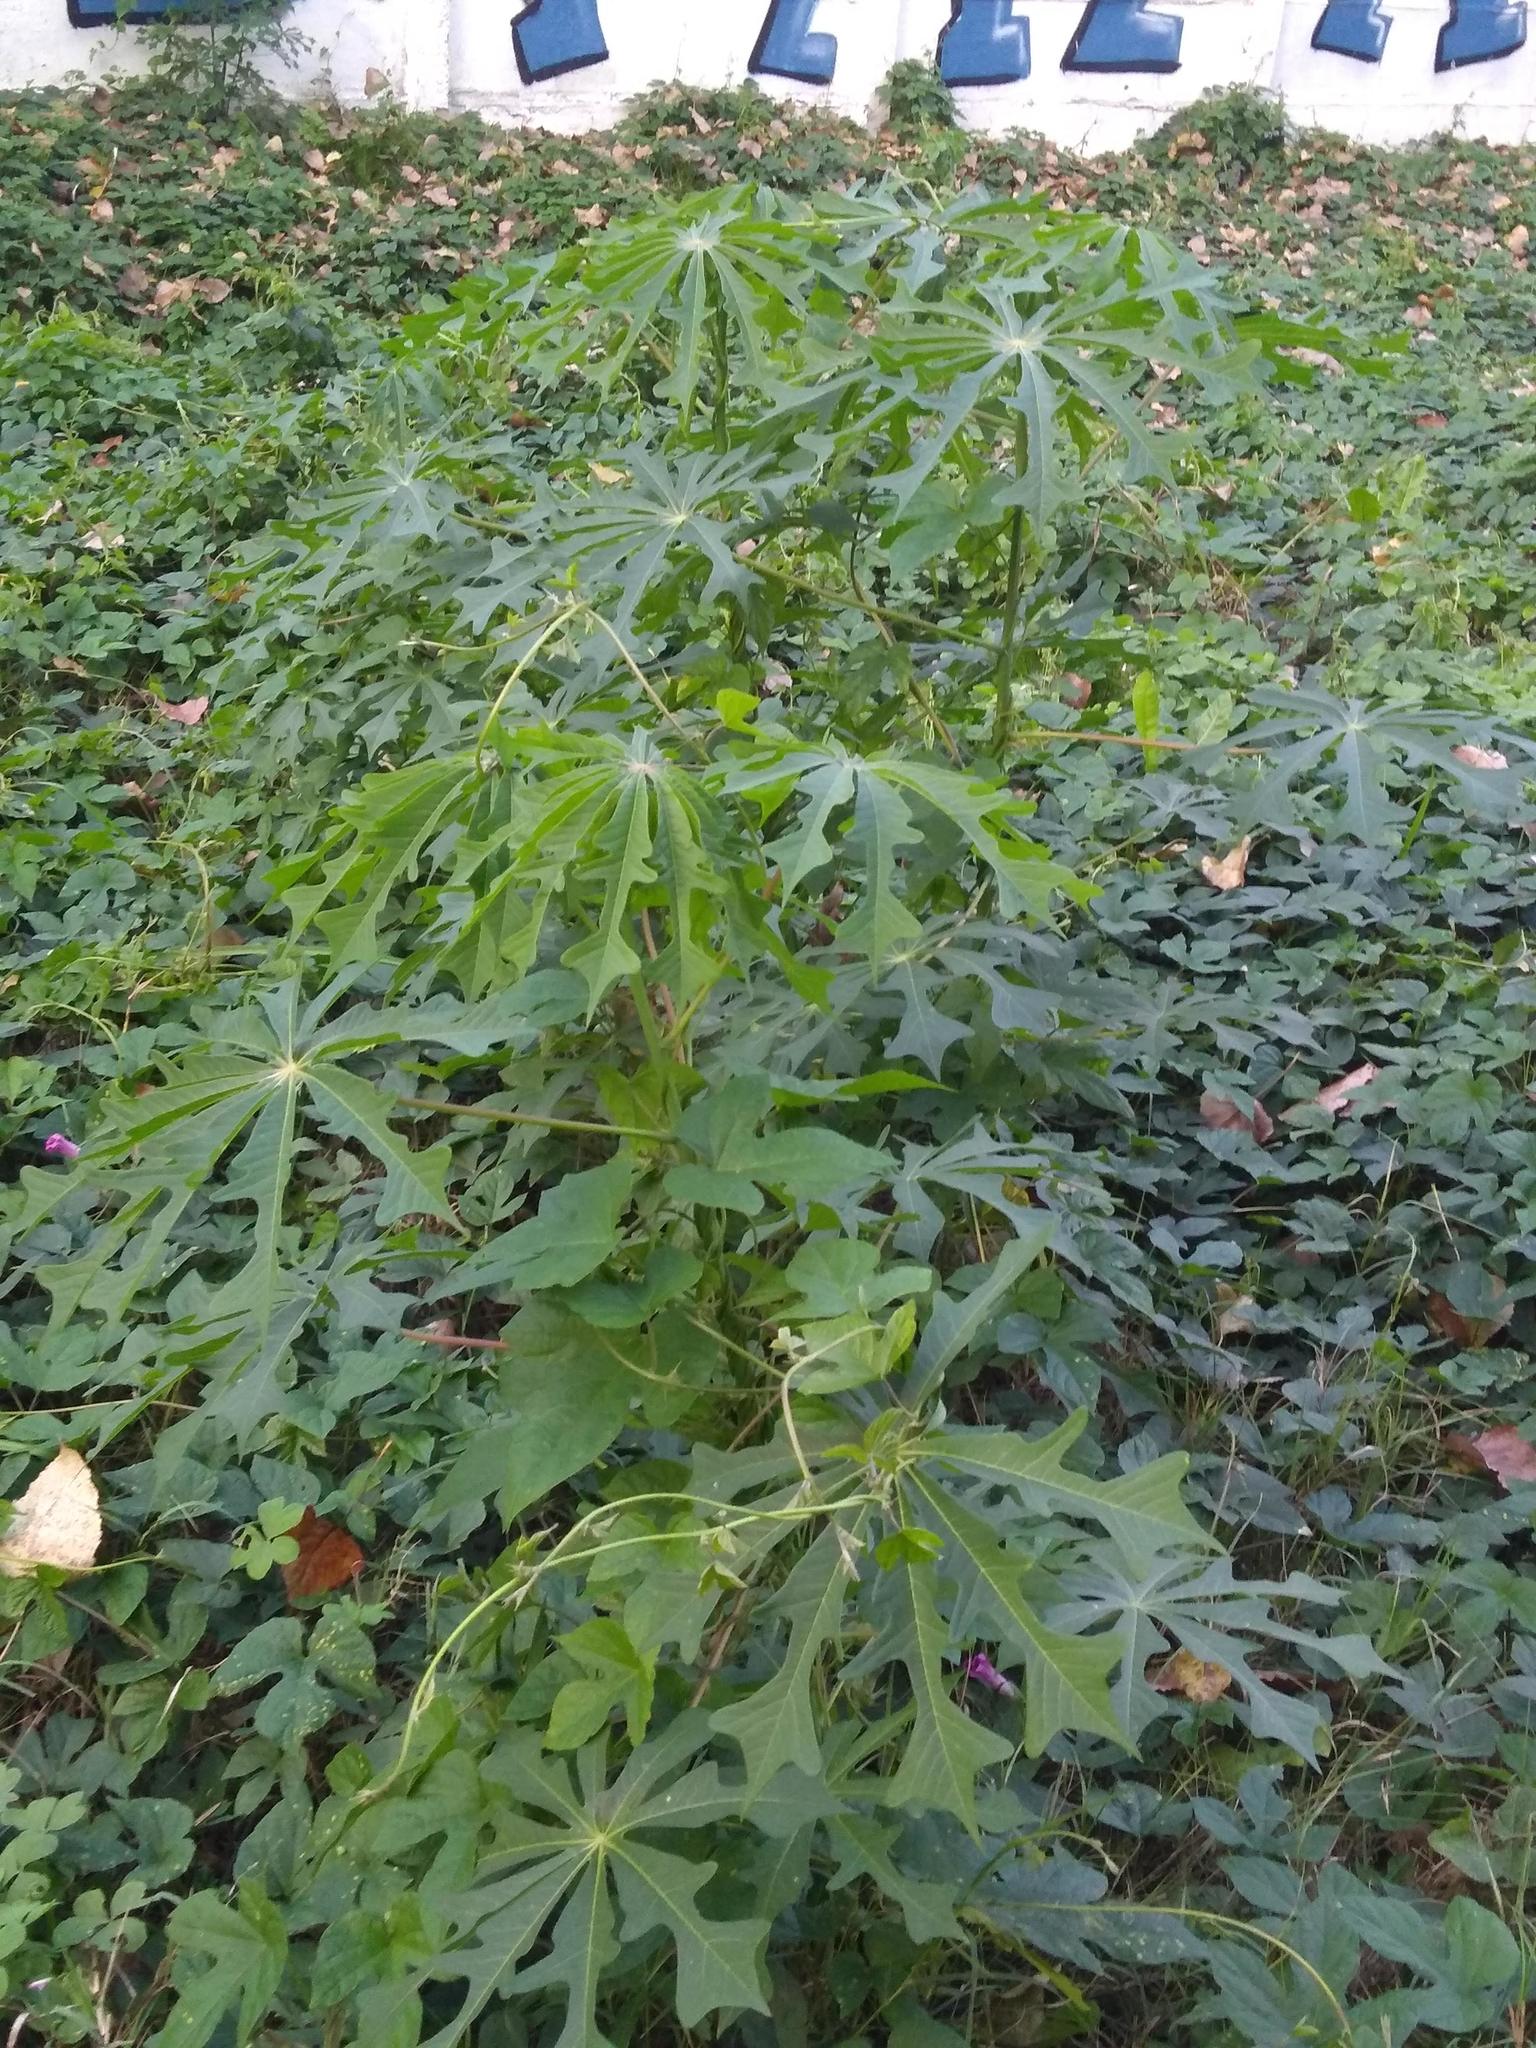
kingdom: Plantae
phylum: Tracheophyta
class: Magnoliopsida
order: Malpighiales
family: Euphorbiaceae
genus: Manihot
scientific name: Manihot grahamii
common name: Graham's manihot
